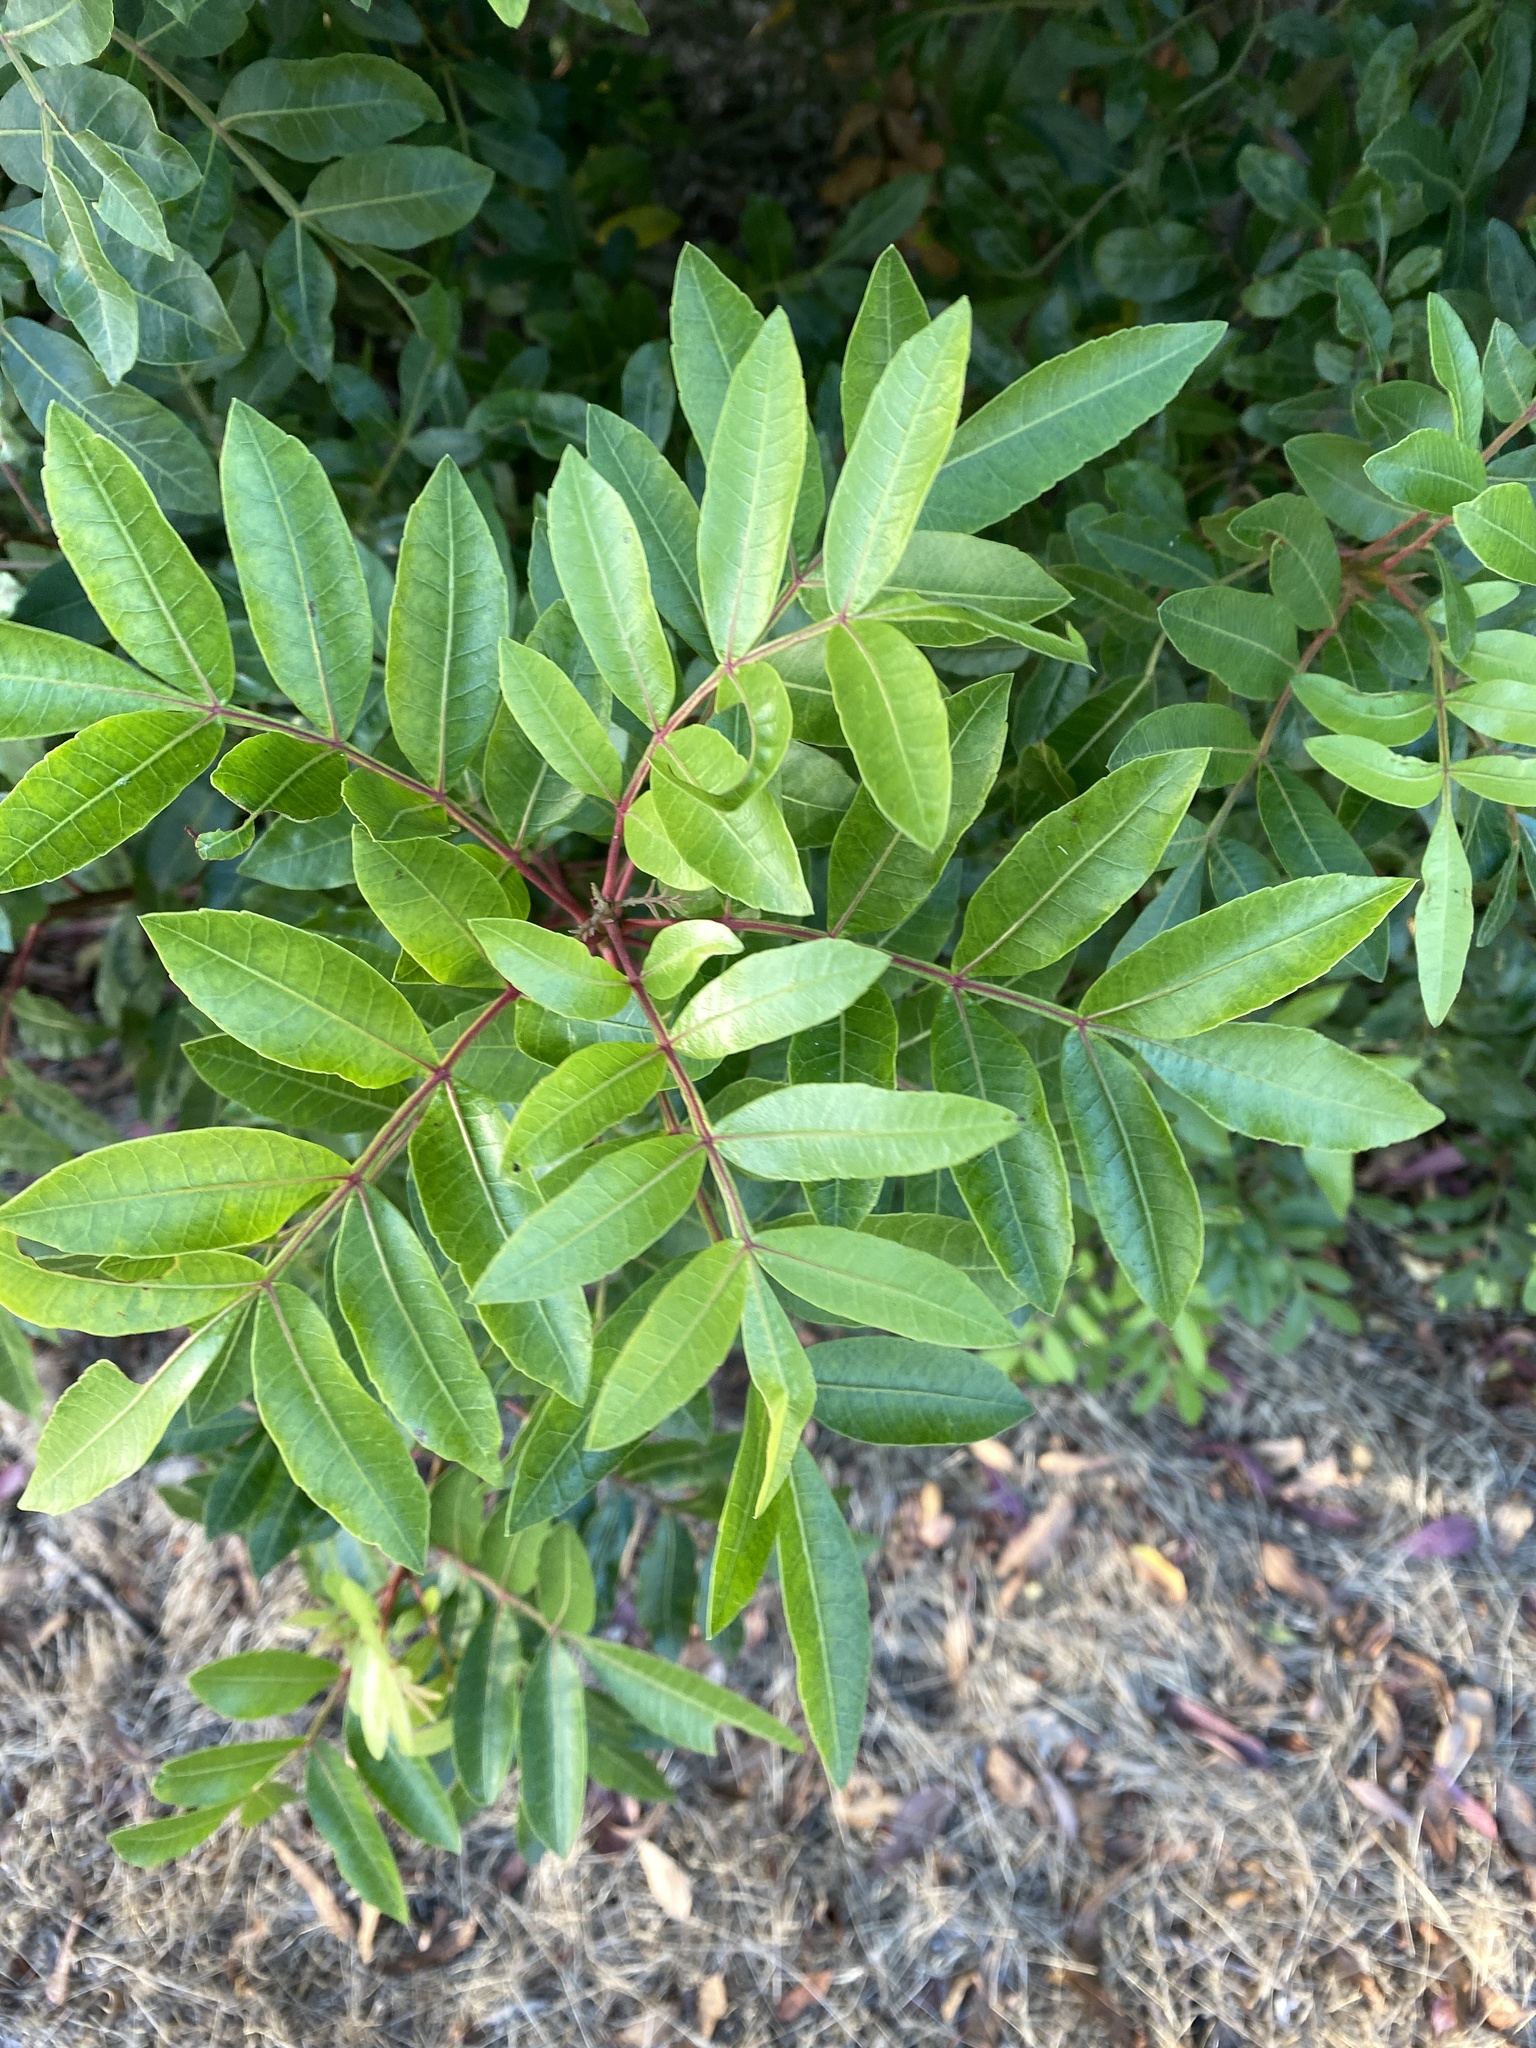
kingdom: Plantae
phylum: Tracheophyta
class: Magnoliopsida
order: Sapindales
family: Anacardiaceae
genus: Schinus
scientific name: Schinus terebinthifolia
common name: Brazilian peppertree
